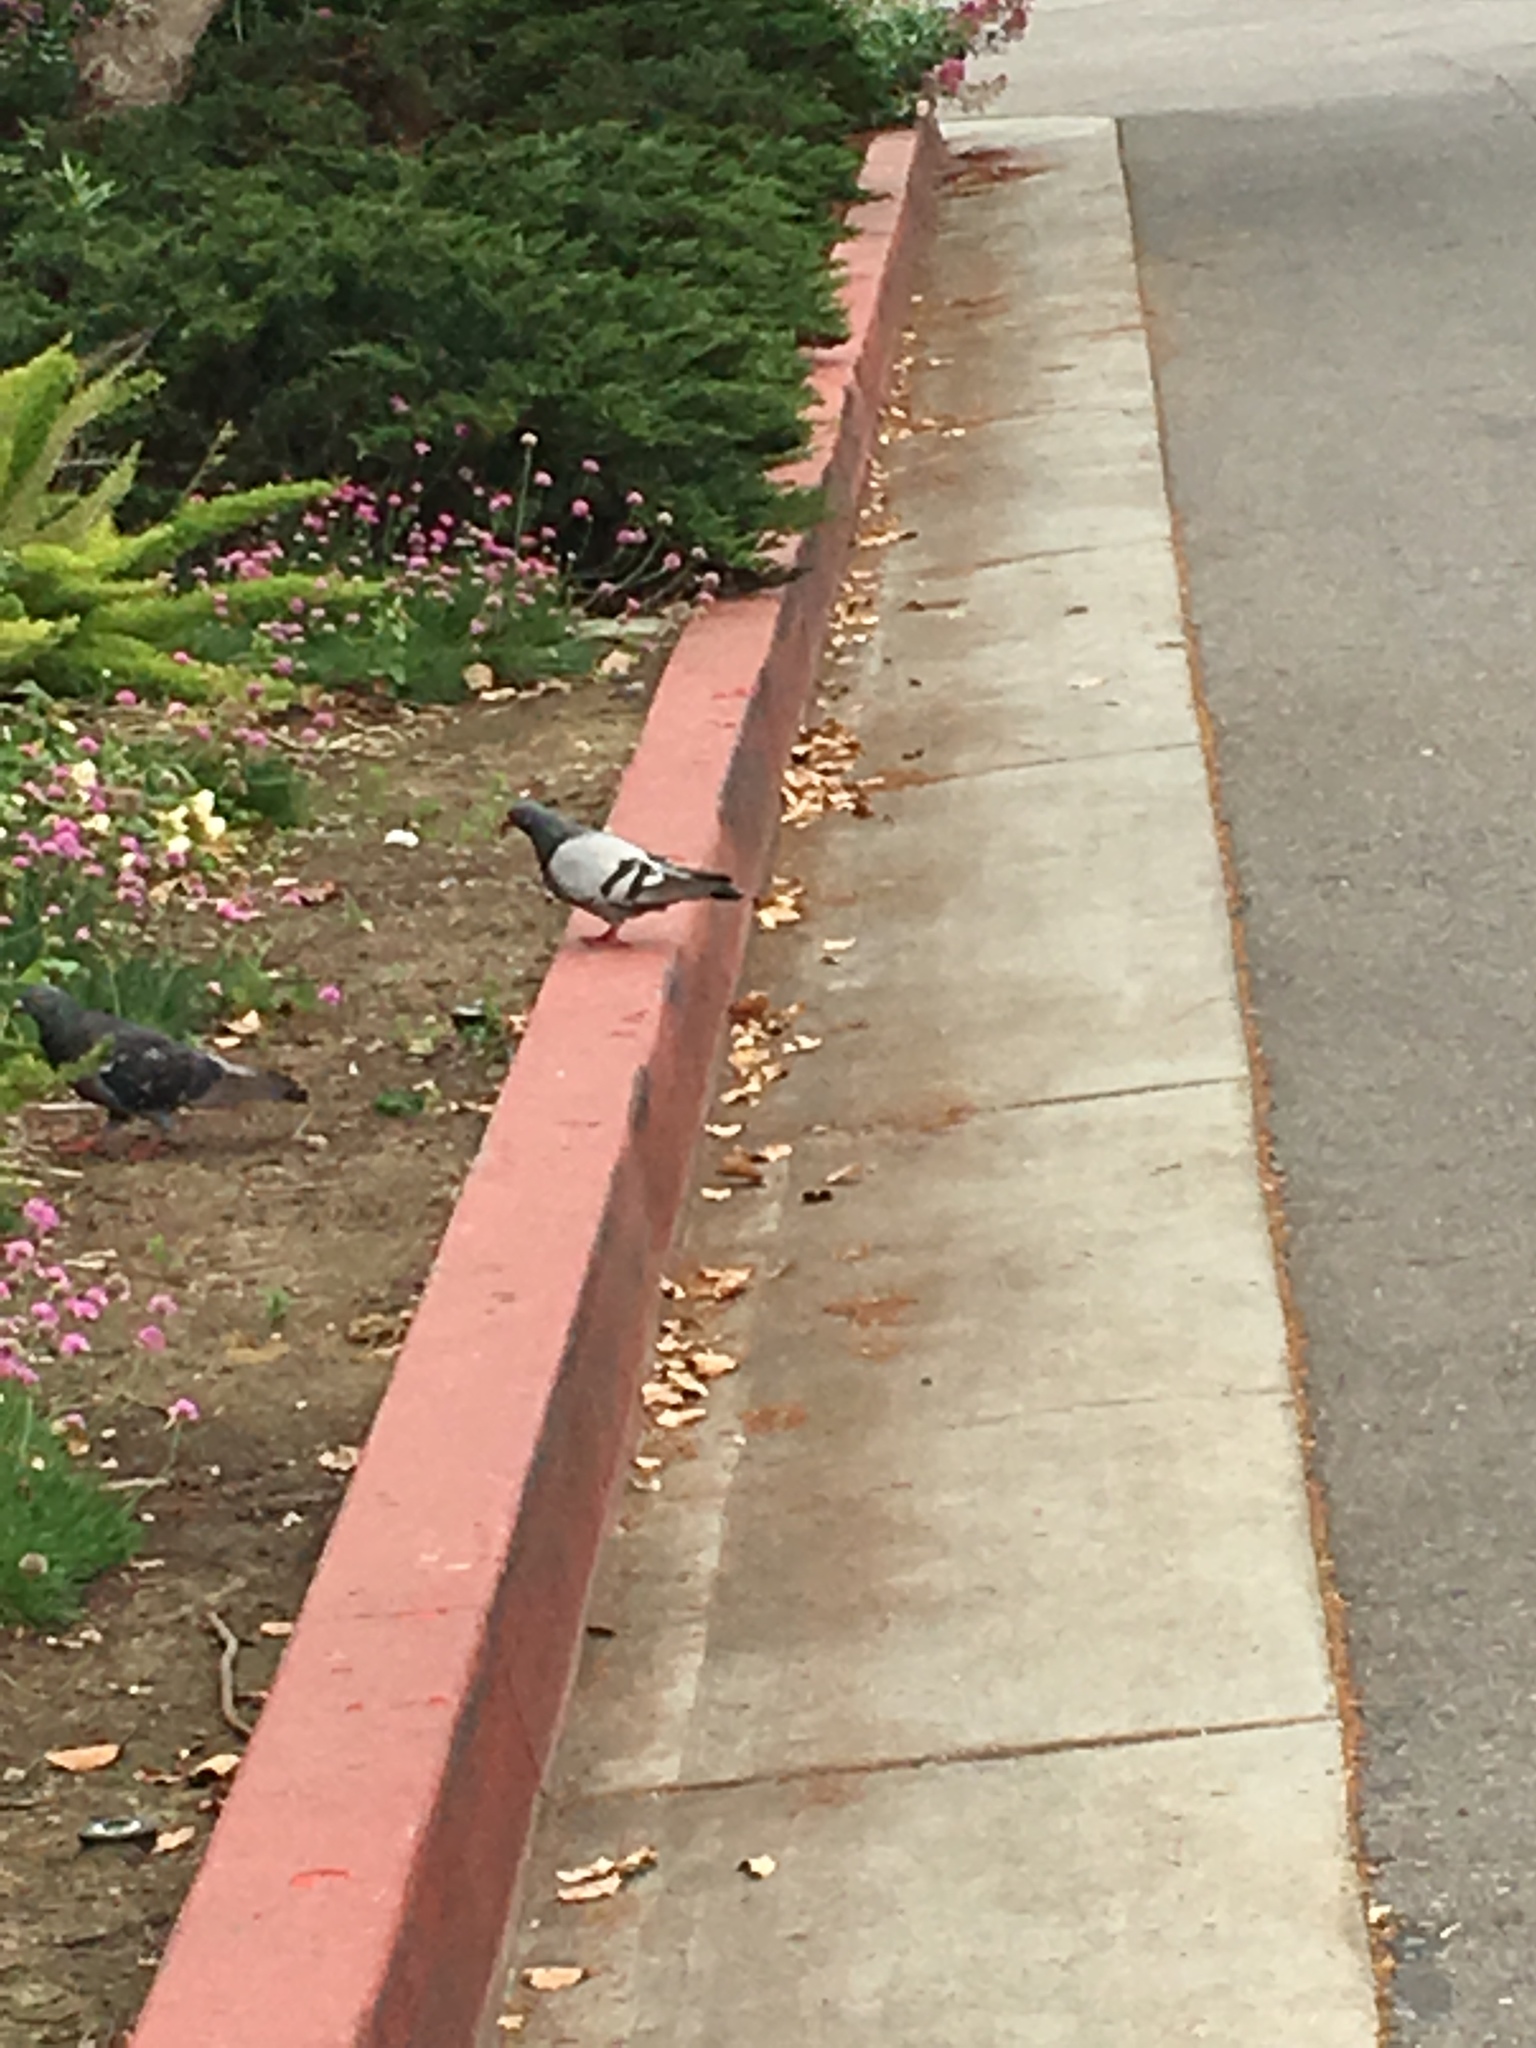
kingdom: Animalia
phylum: Chordata
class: Aves
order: Columbiformes
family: Columbidae
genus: Columba
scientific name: Columba livia
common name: Rock pigeon
